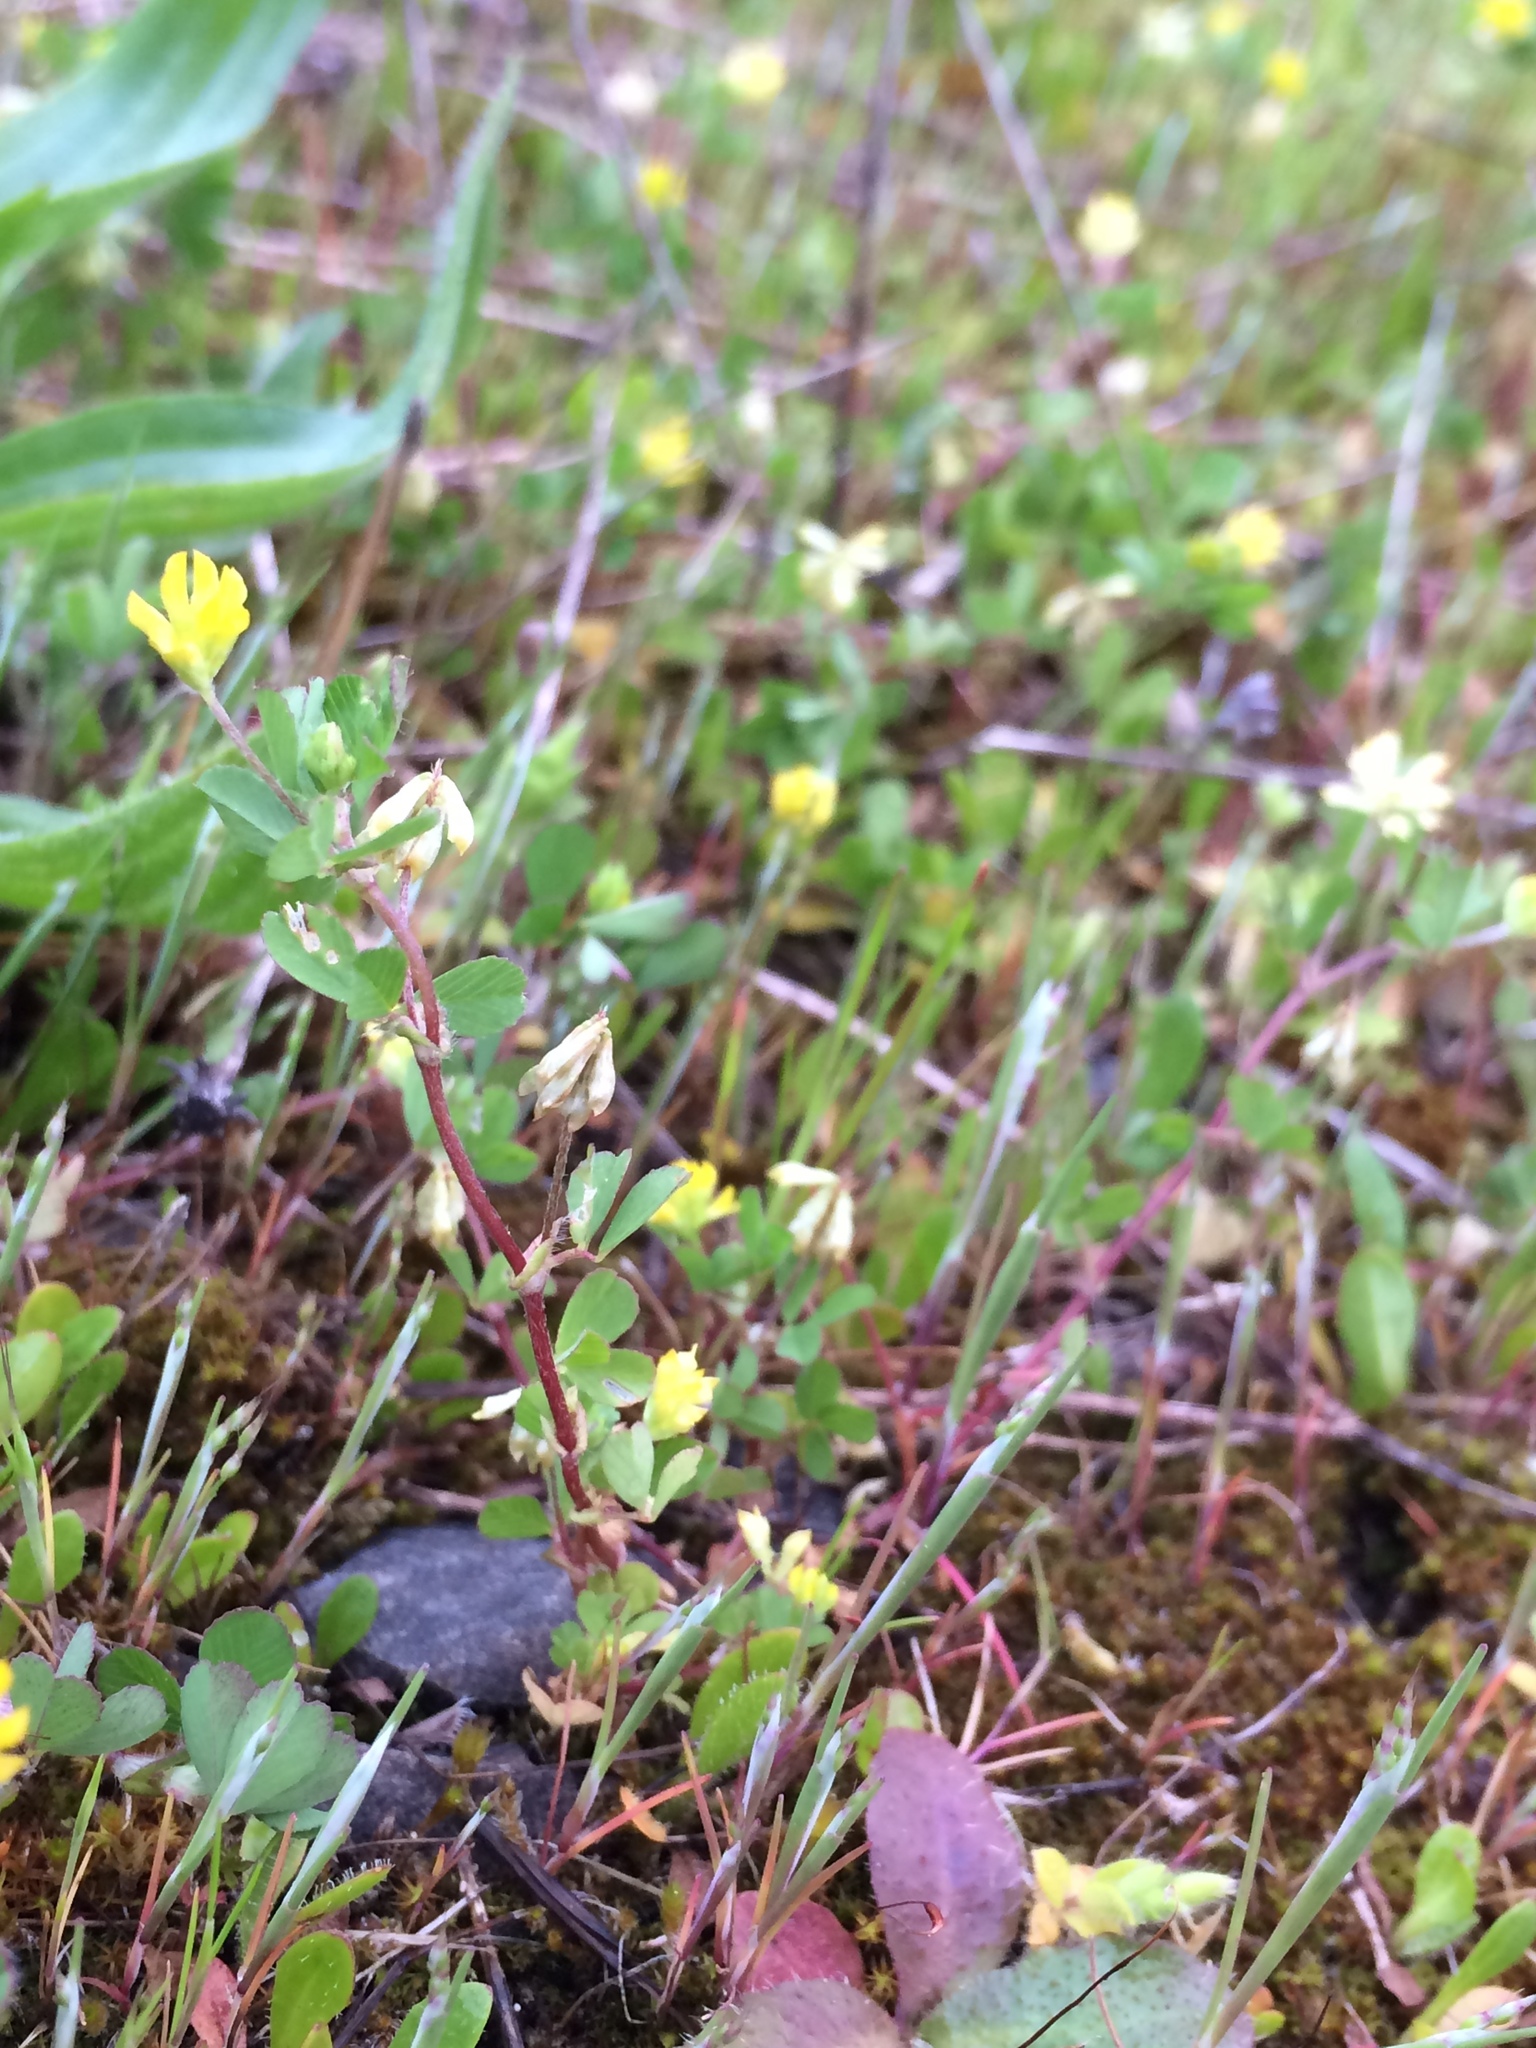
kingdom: Plantae
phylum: Tracheophyta
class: Magnoliopsida
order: Fabales
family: Fabaceae
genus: Trifolium
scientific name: Trifolium dubium
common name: Suckling clover
